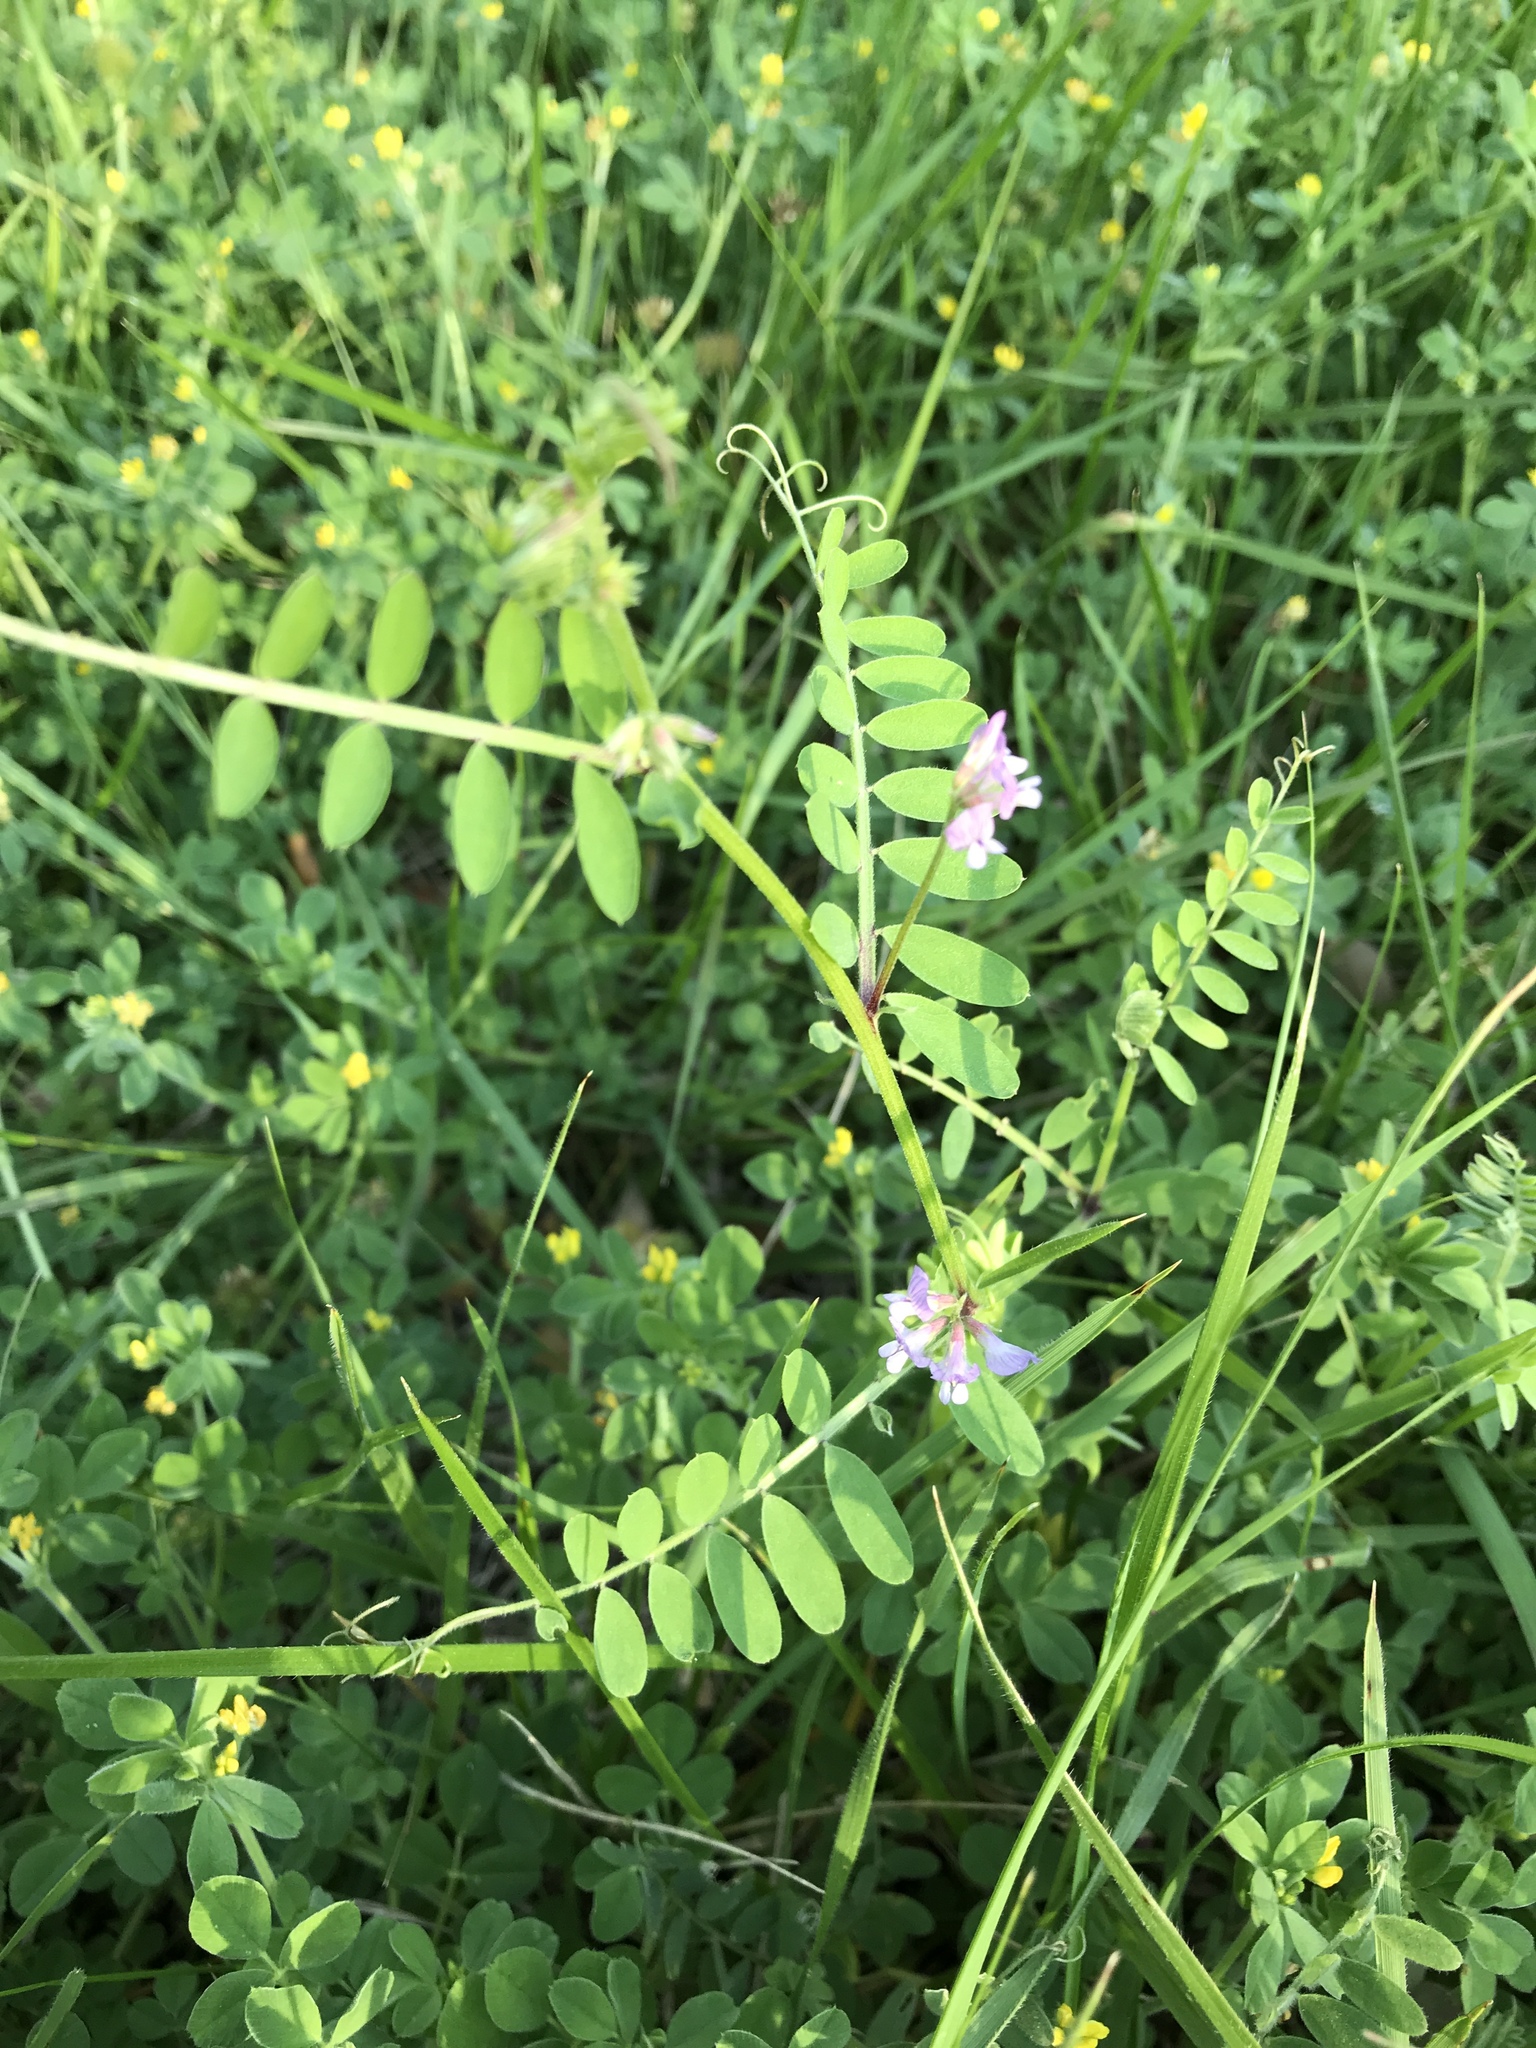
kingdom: Plantae
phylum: Tracheophyta
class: Magnoliopsida
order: Fabales
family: Fabaceae
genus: Vicia
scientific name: Vicia ludoviciana
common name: Louisiana vetch
